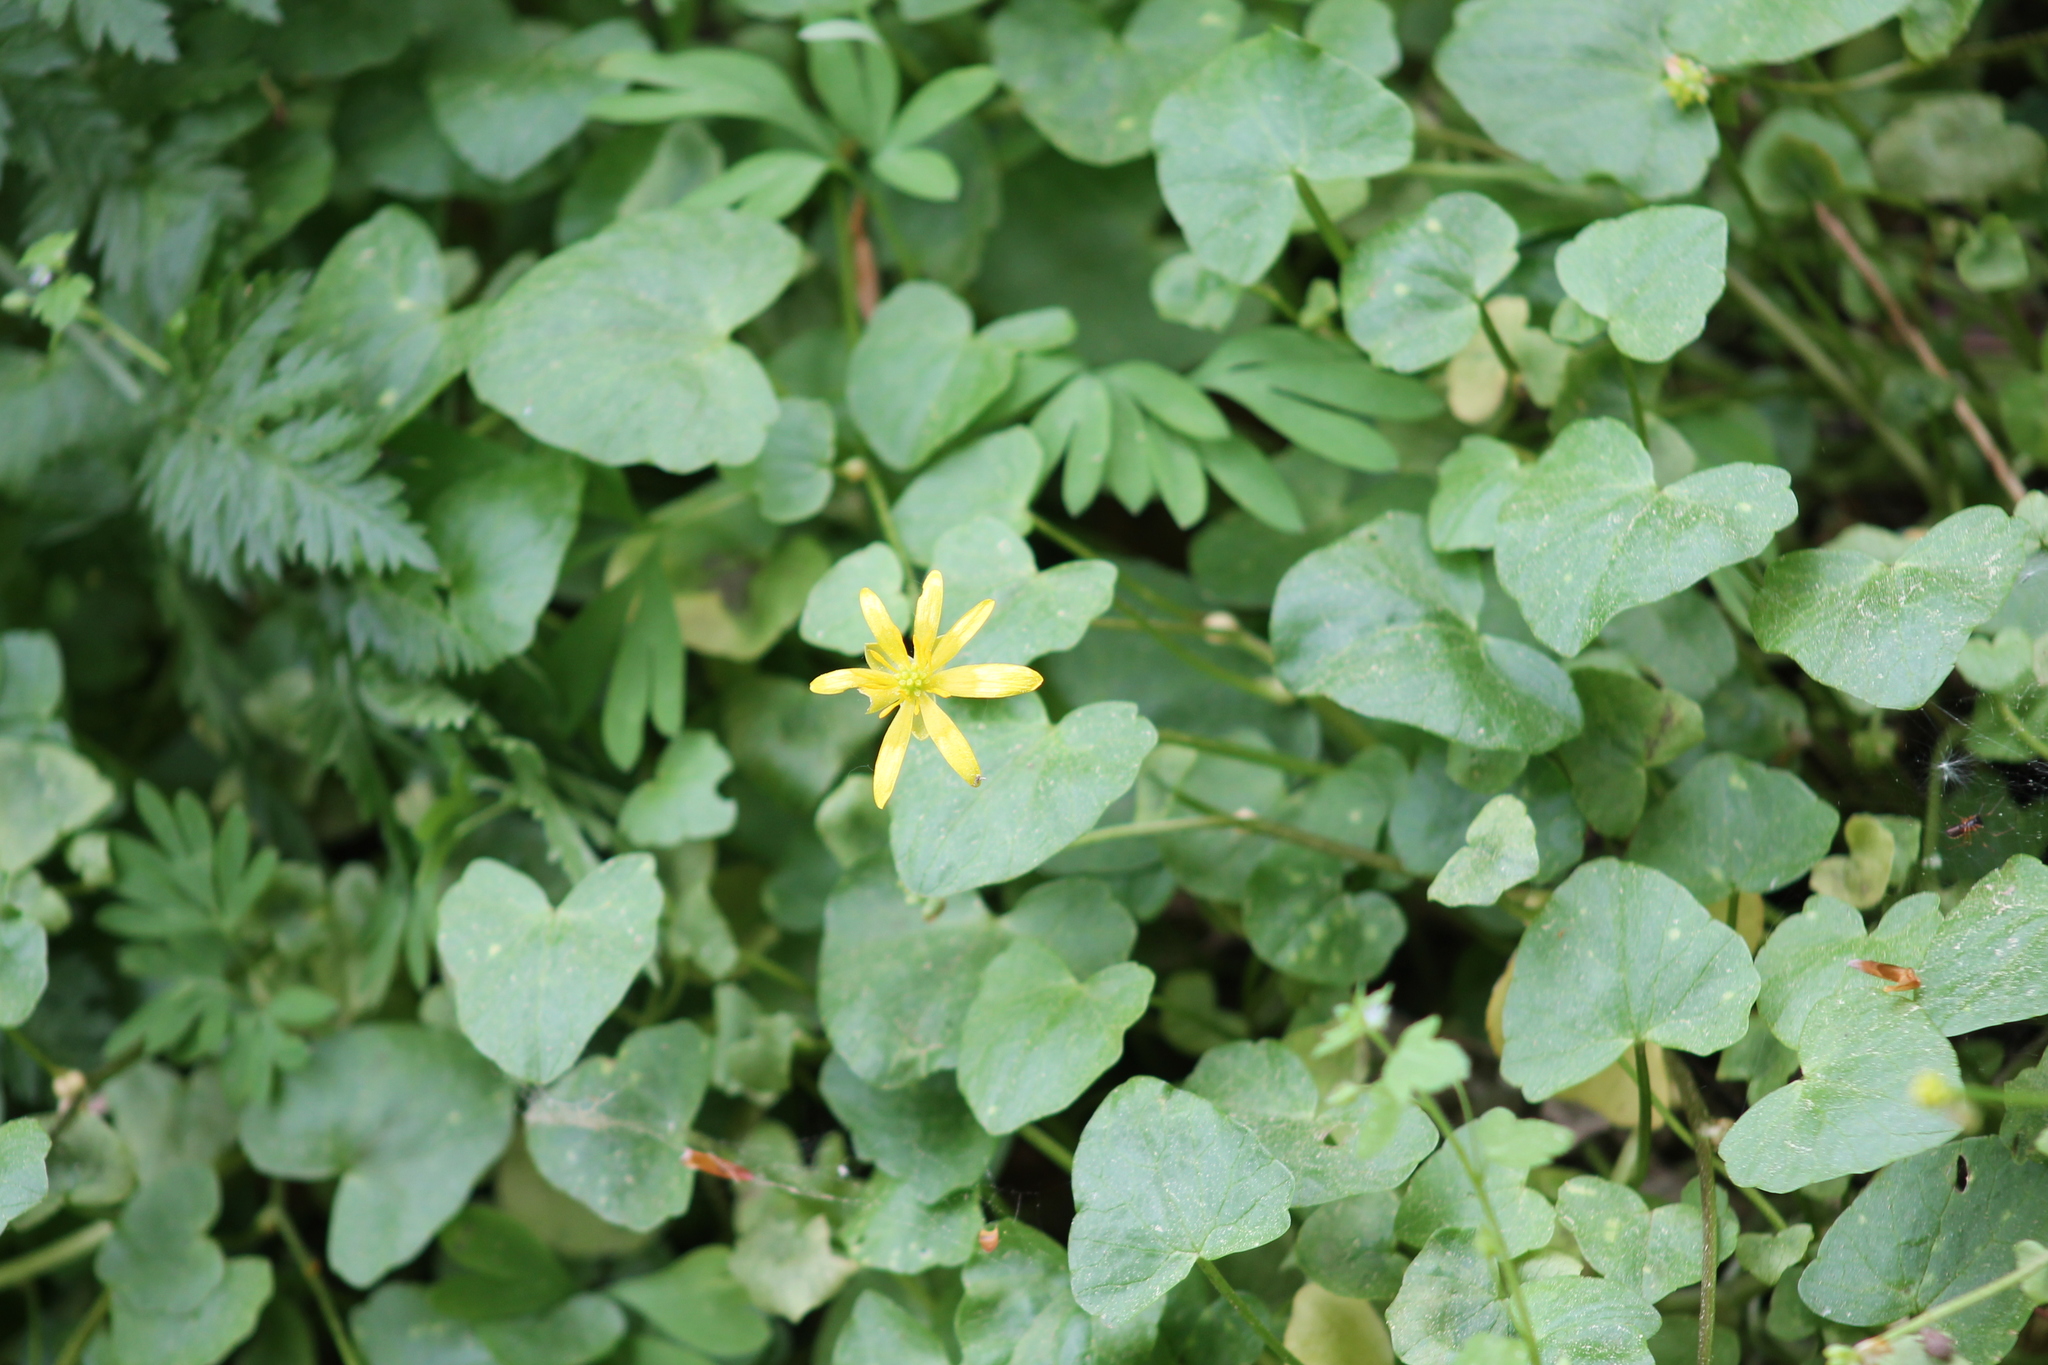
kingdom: Plantae
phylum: Tracheophyta
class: Magnoliopsida
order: Ranunculales
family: Ranunculaceae
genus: Ficaria
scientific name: Ficaria verna
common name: Lesser celandine
